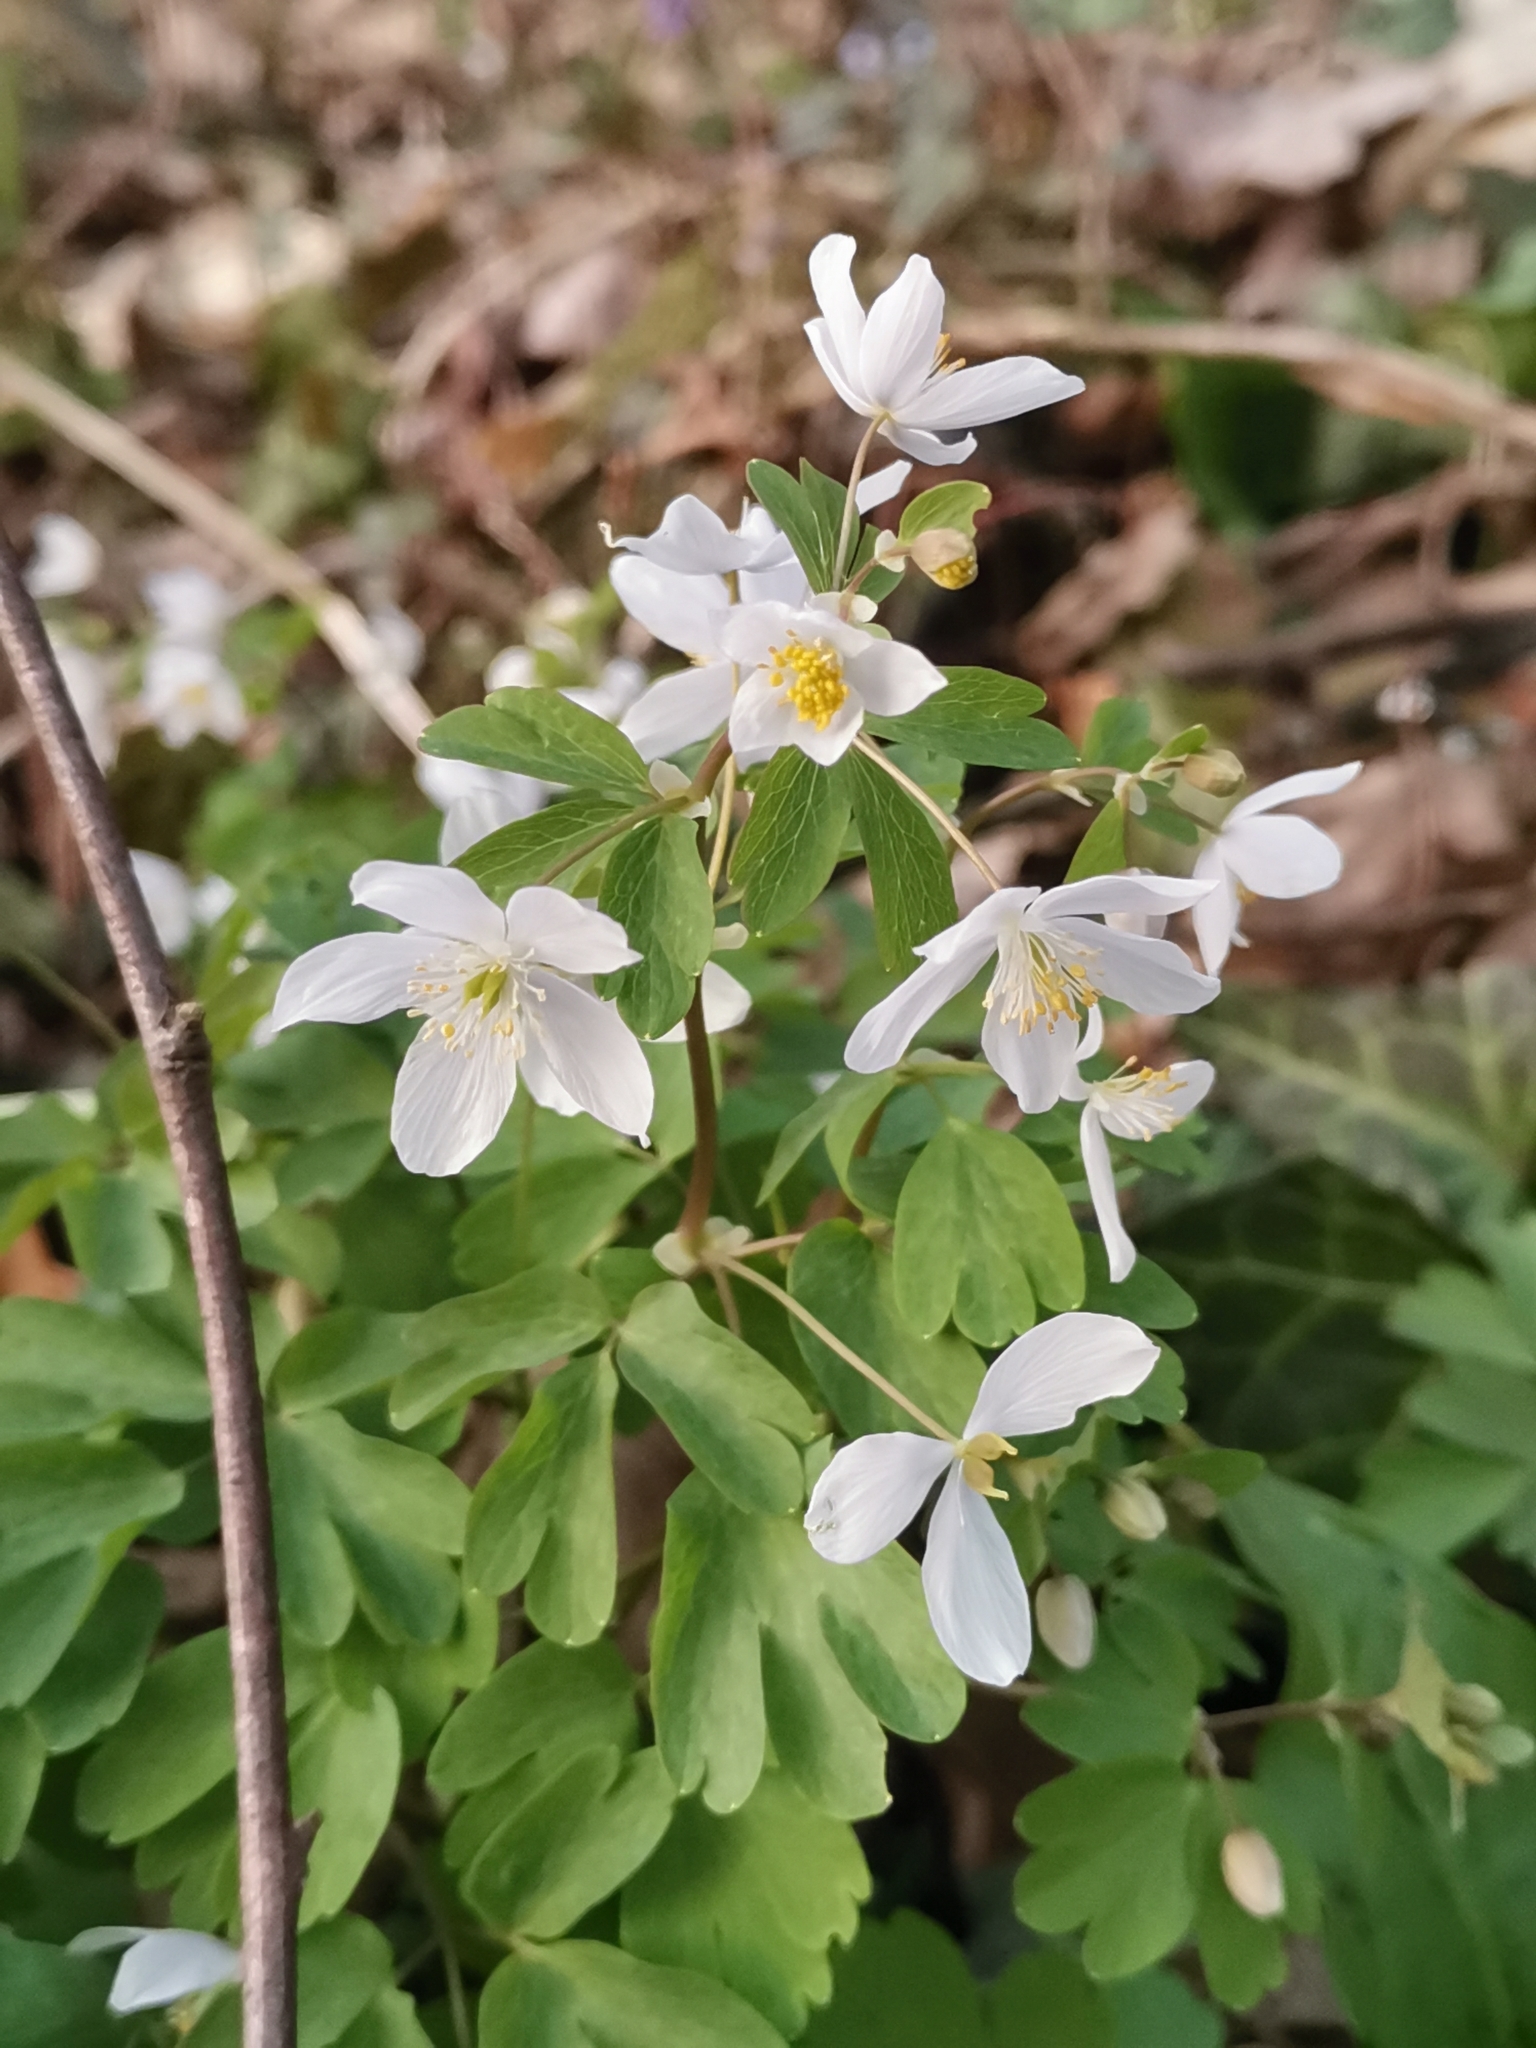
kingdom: Plantae
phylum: Tracheophyta
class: Magnoliopsida
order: Ranunculales
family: Ranunculaceae
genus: Isopyrum
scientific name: Isopyrum thalictroides
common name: Isopyrum
